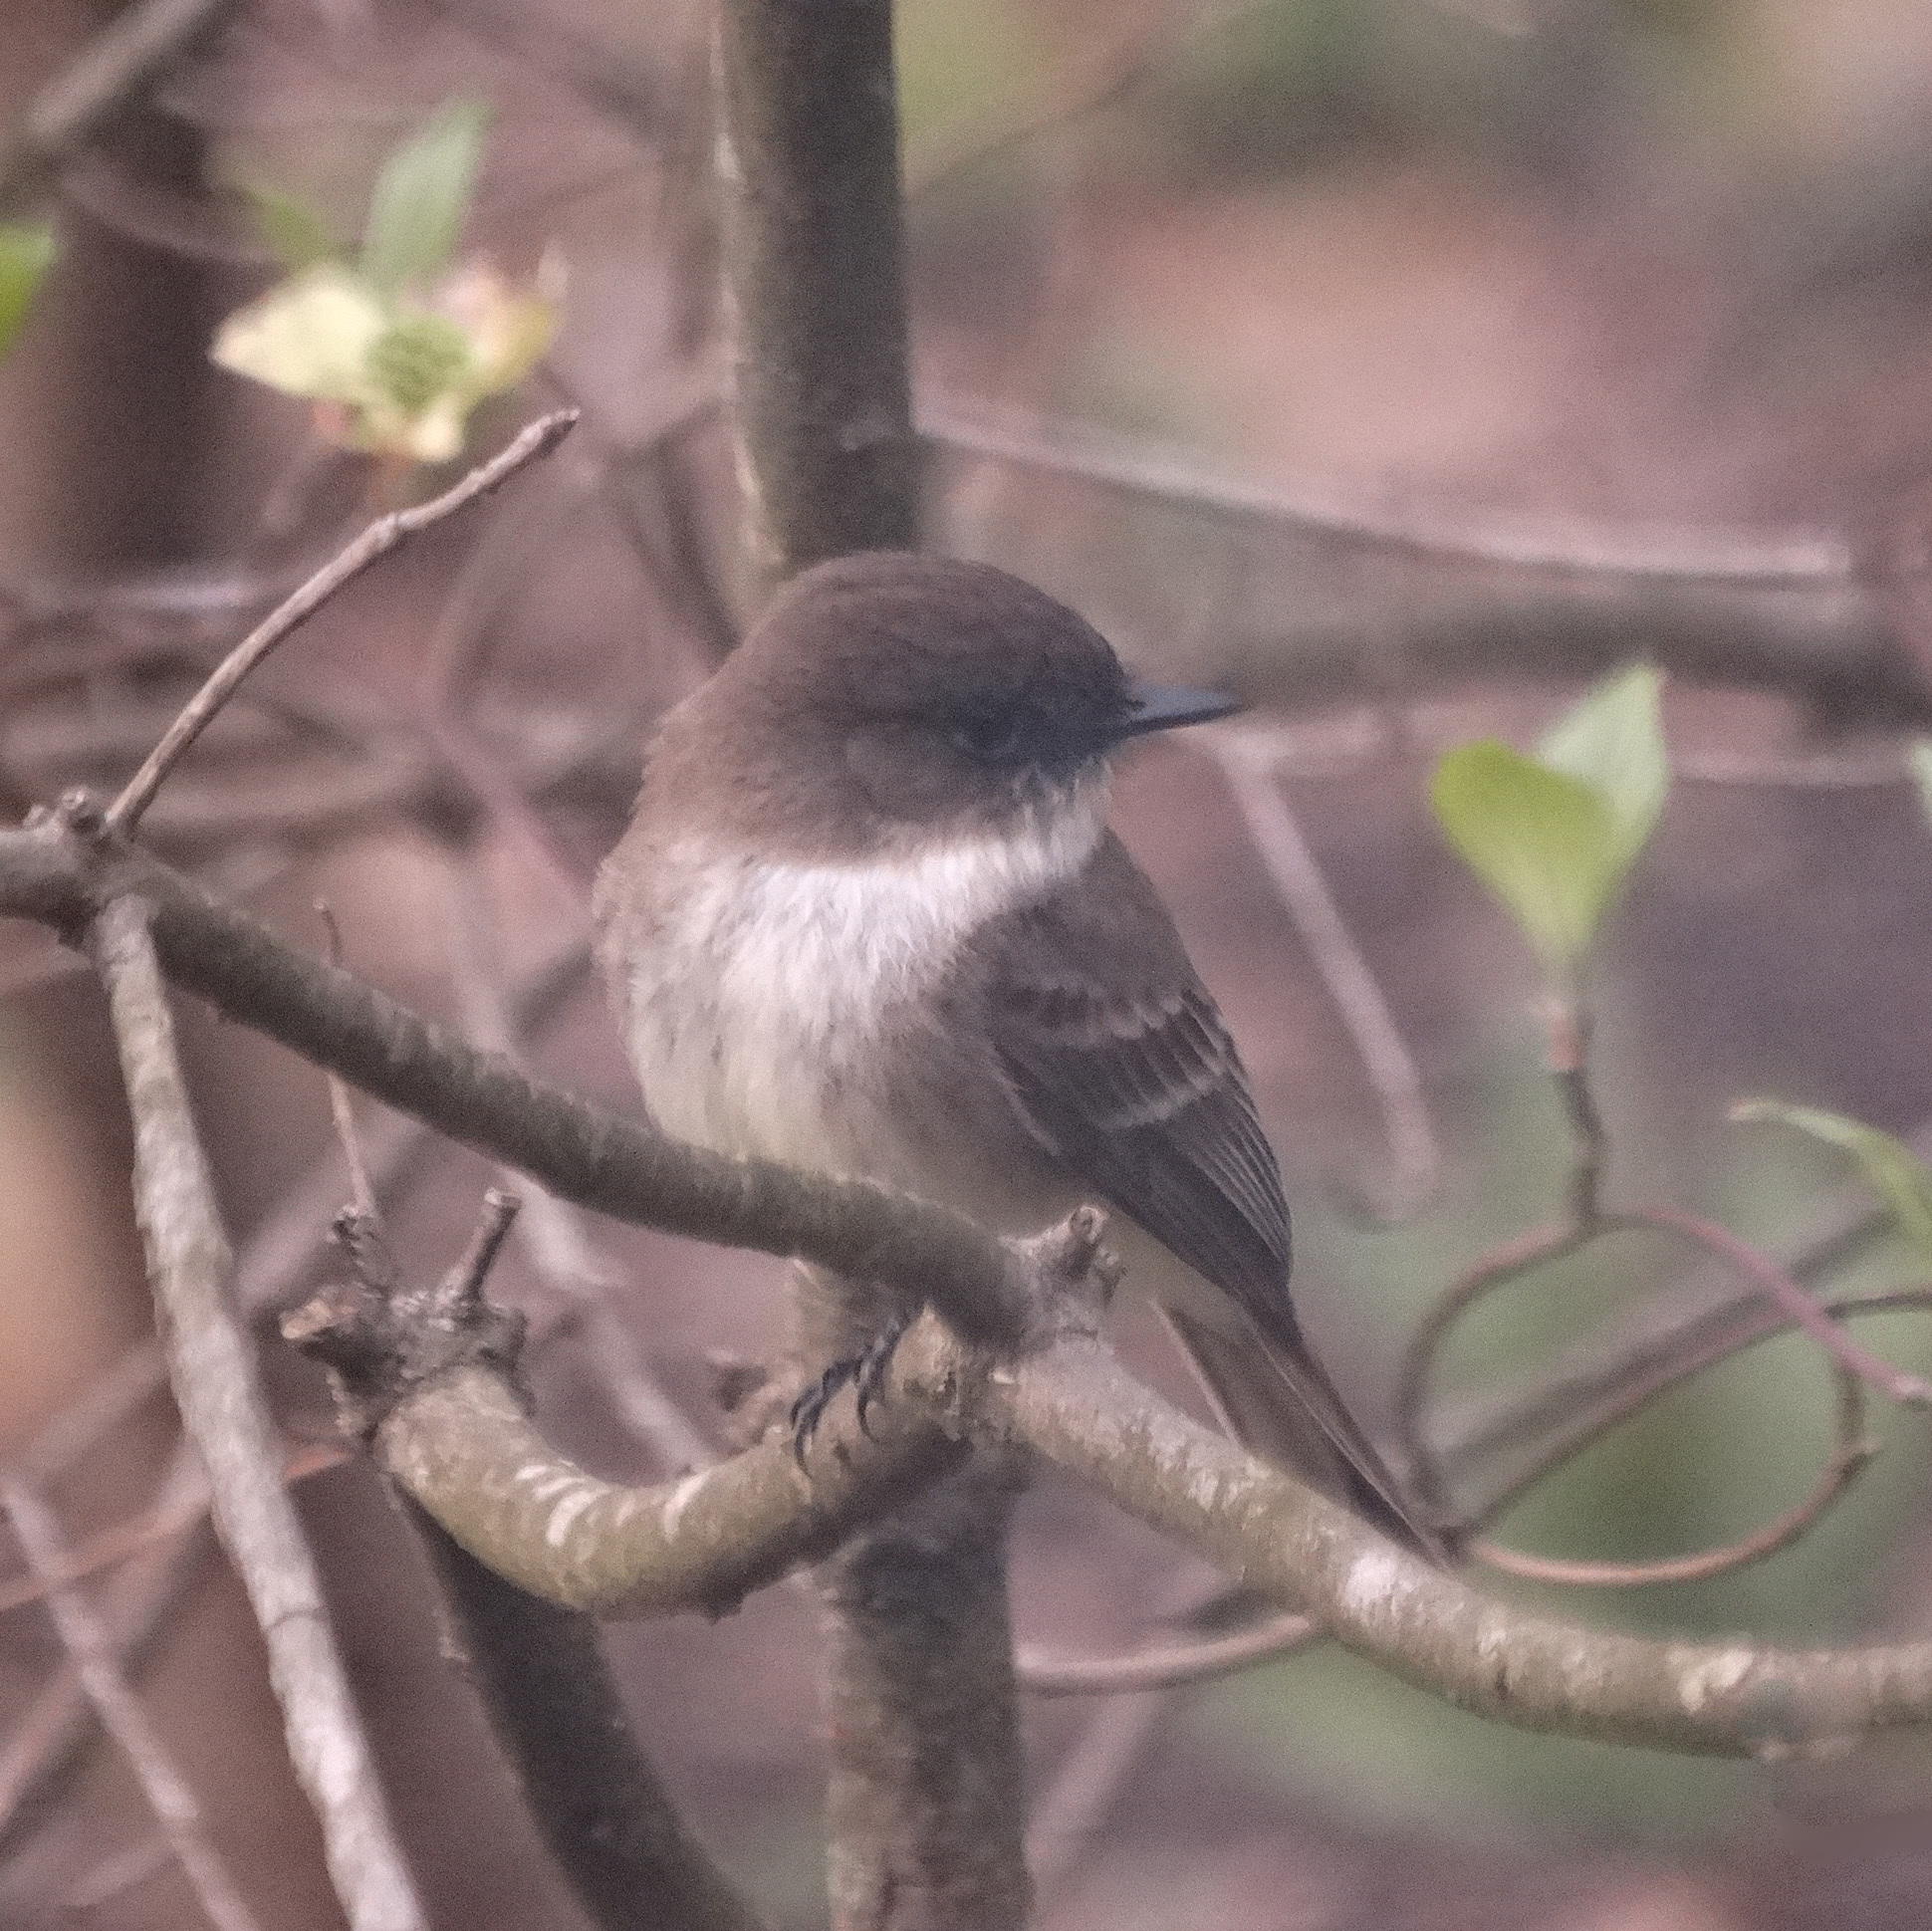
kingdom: Animalia
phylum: Chordata
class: Aves
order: Passeriformes
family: Tyrannidae
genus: Sayornis
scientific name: Sayornis phoebe
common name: Eastern phoebe
